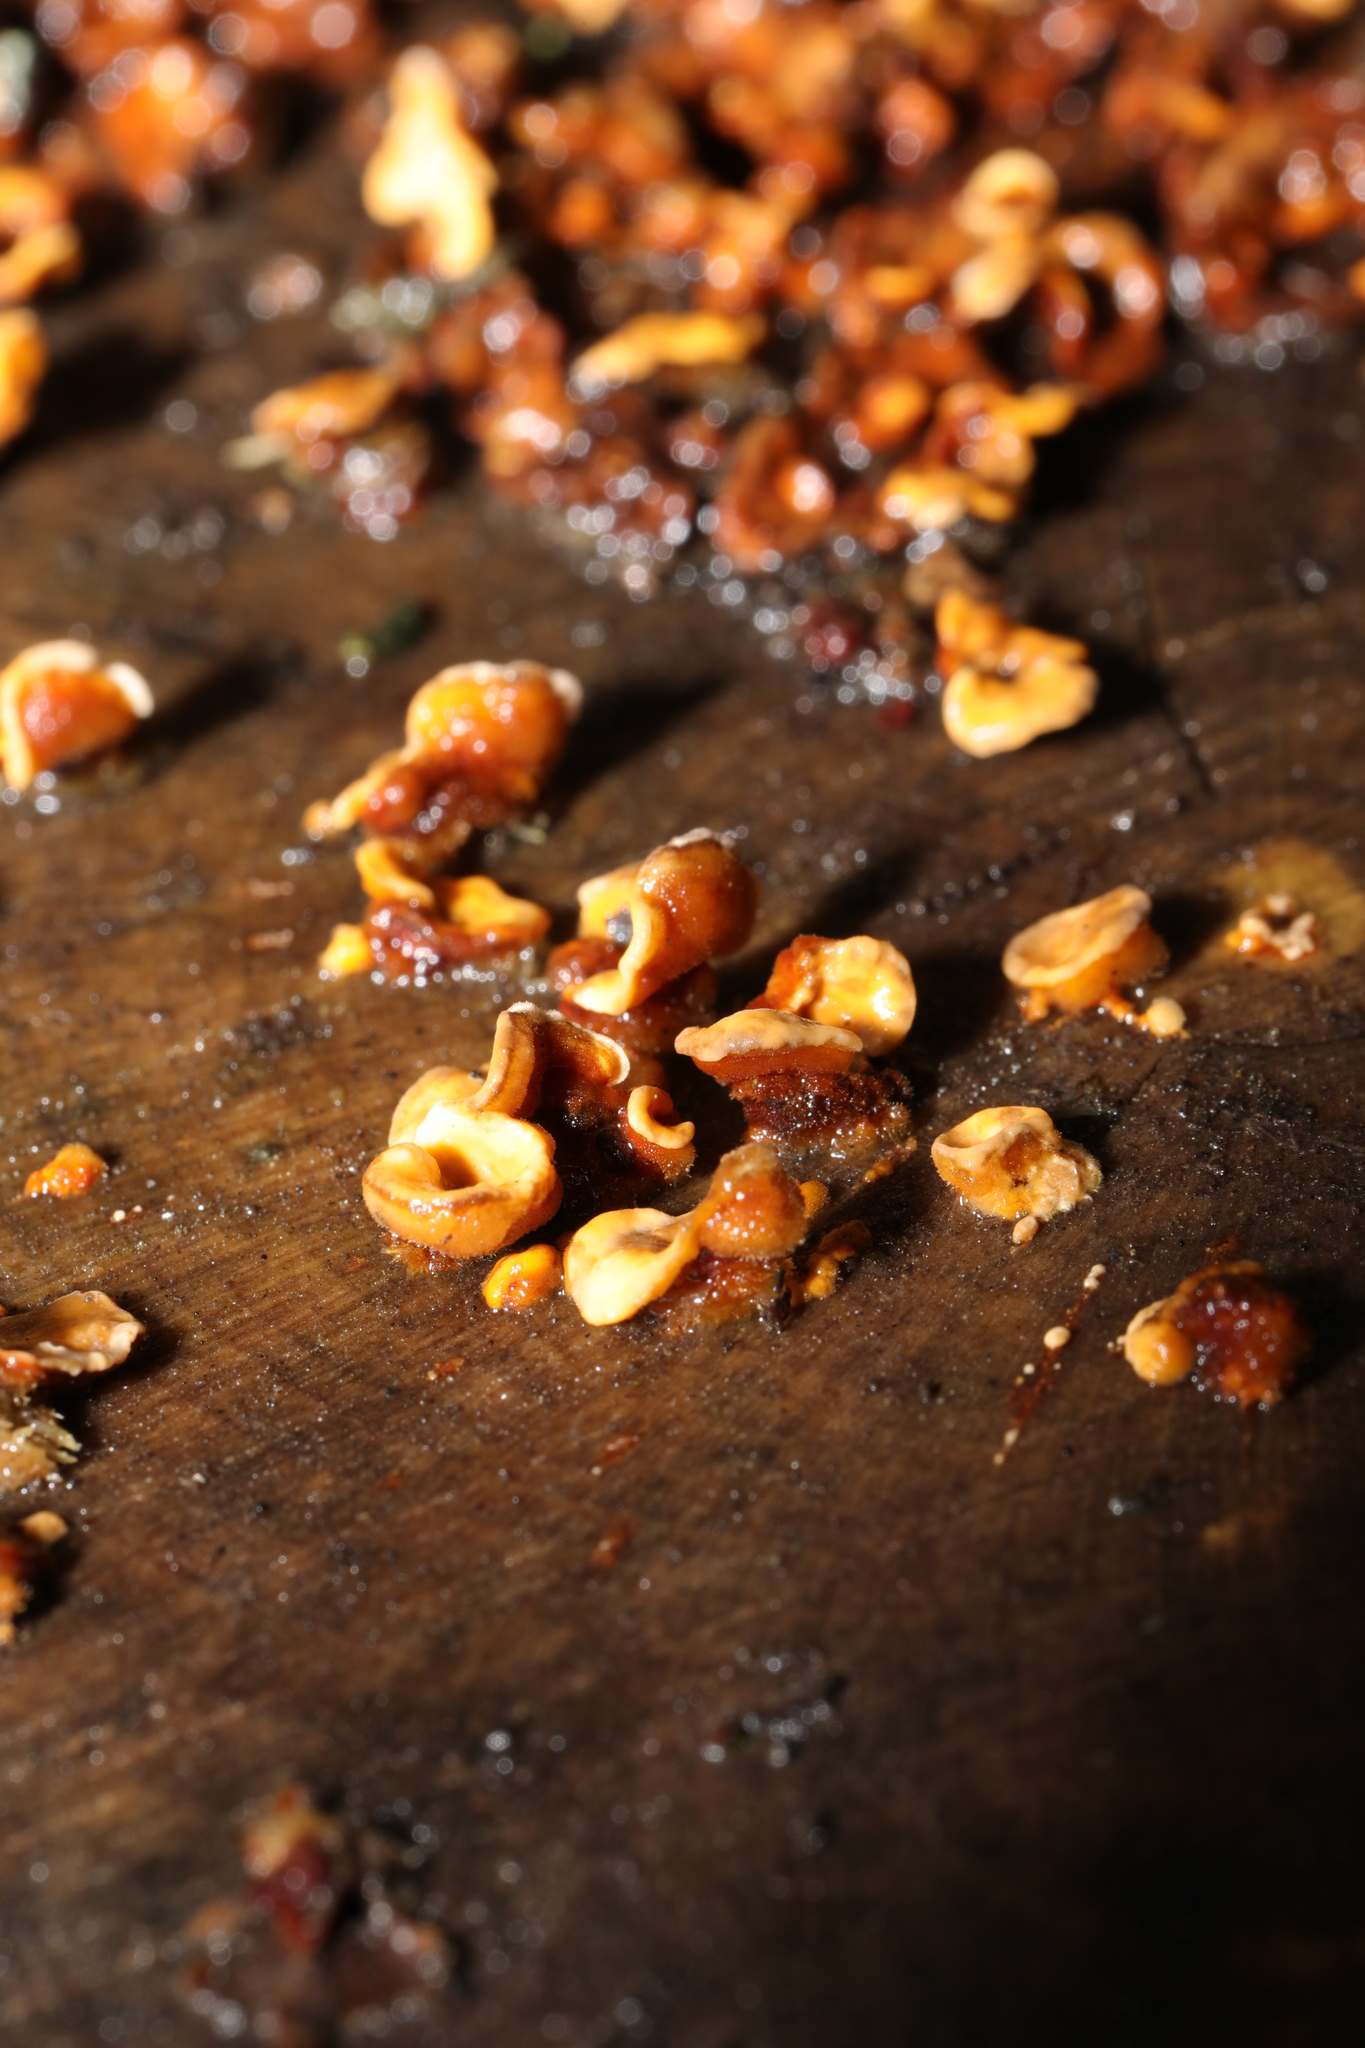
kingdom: Fungi
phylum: Basidiomycota
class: Agaricomycetes
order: Russulales
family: Stereaceae
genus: Stereum
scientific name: Stereum hirsutum
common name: Hairy curtain crust
